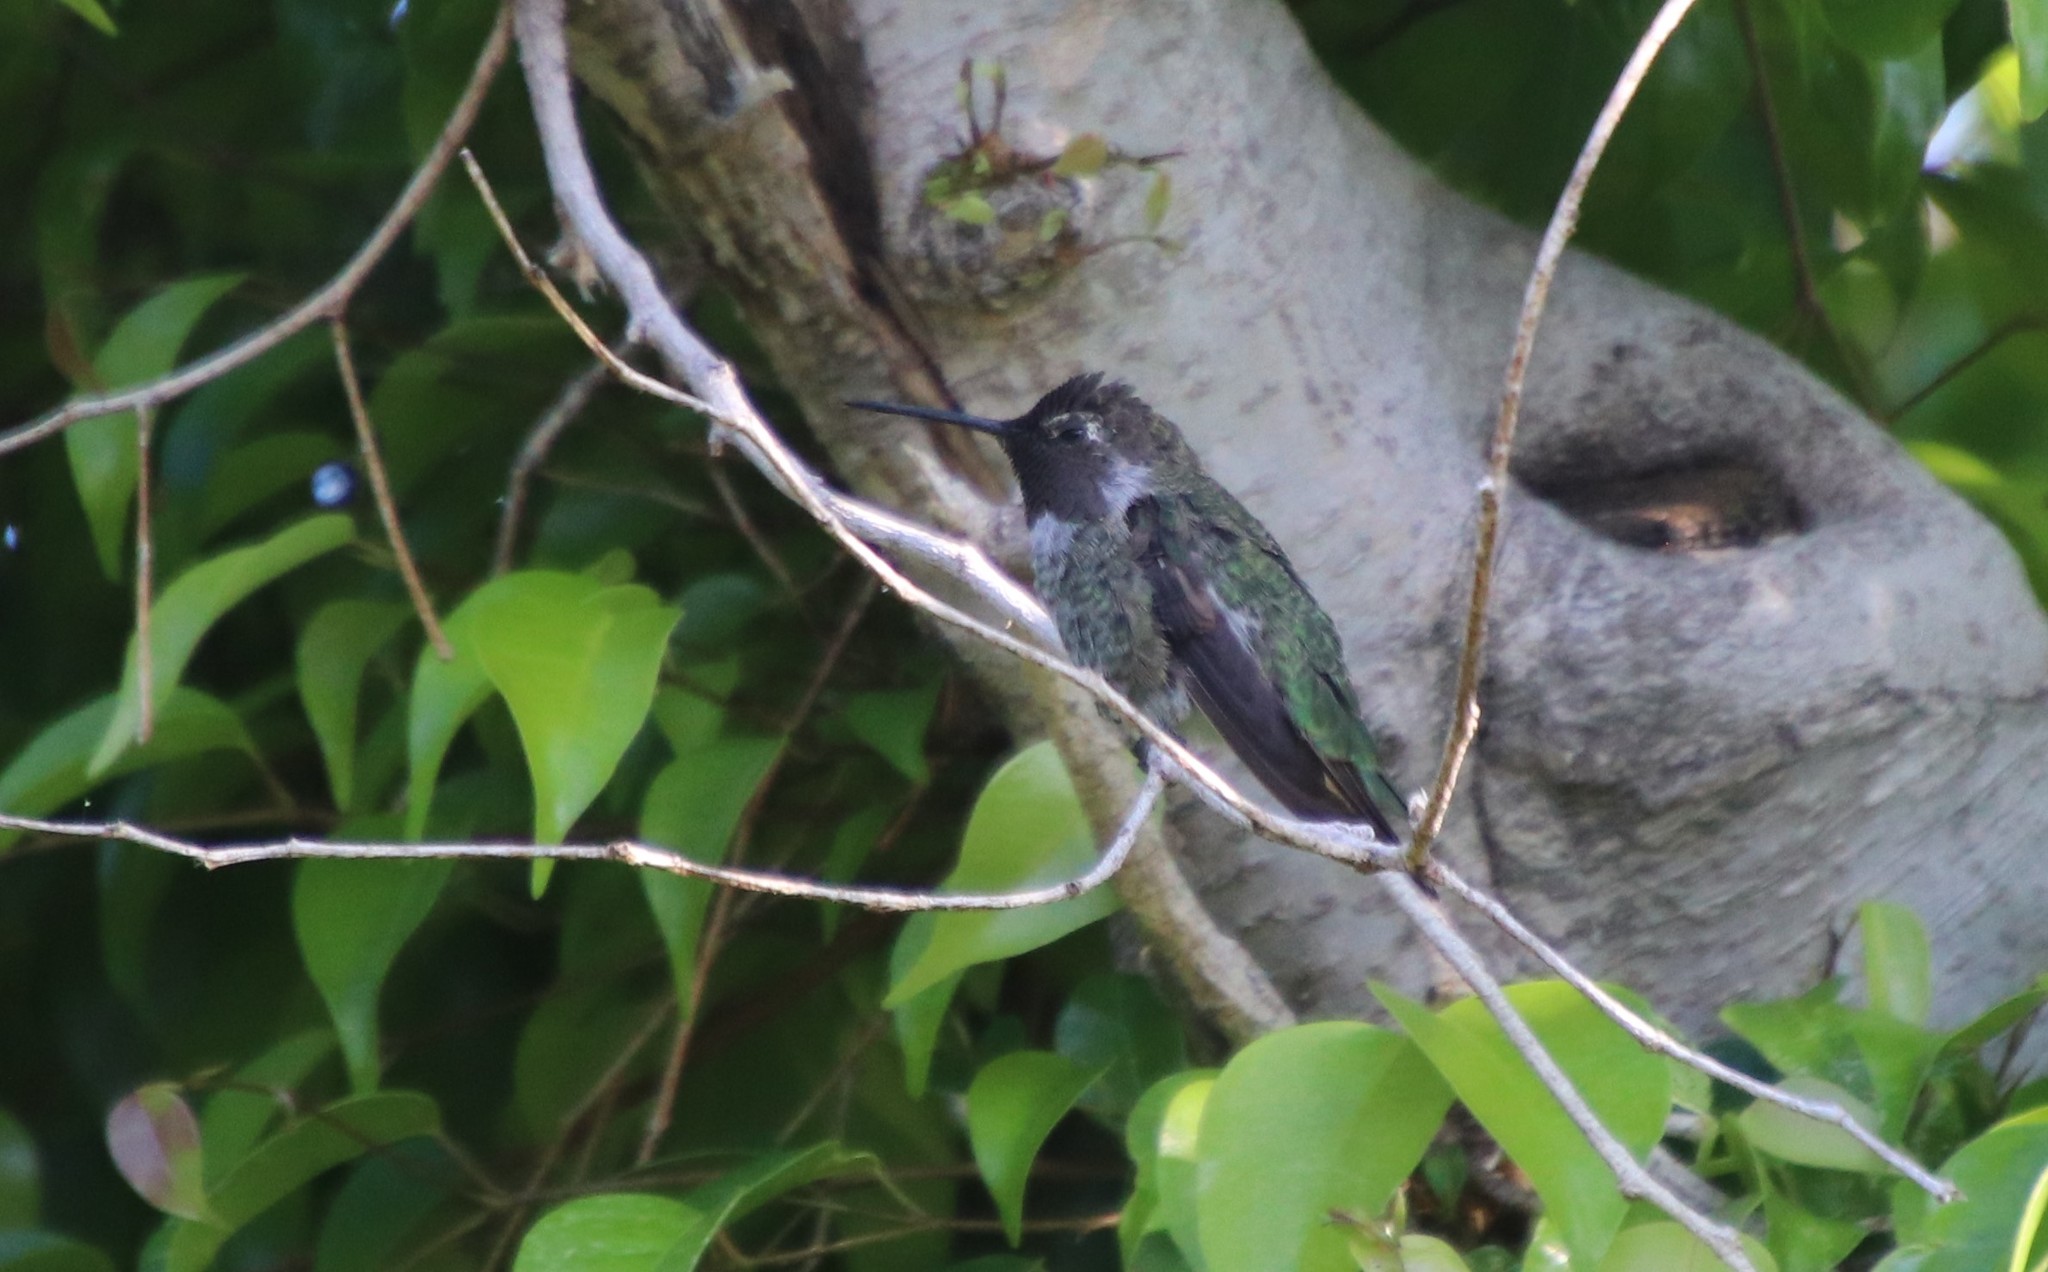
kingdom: Animalia
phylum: Chordata
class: Aves
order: Apodiformes
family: Trochilidae
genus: Calypte
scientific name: Calypte anna
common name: Anna's hummingbird
